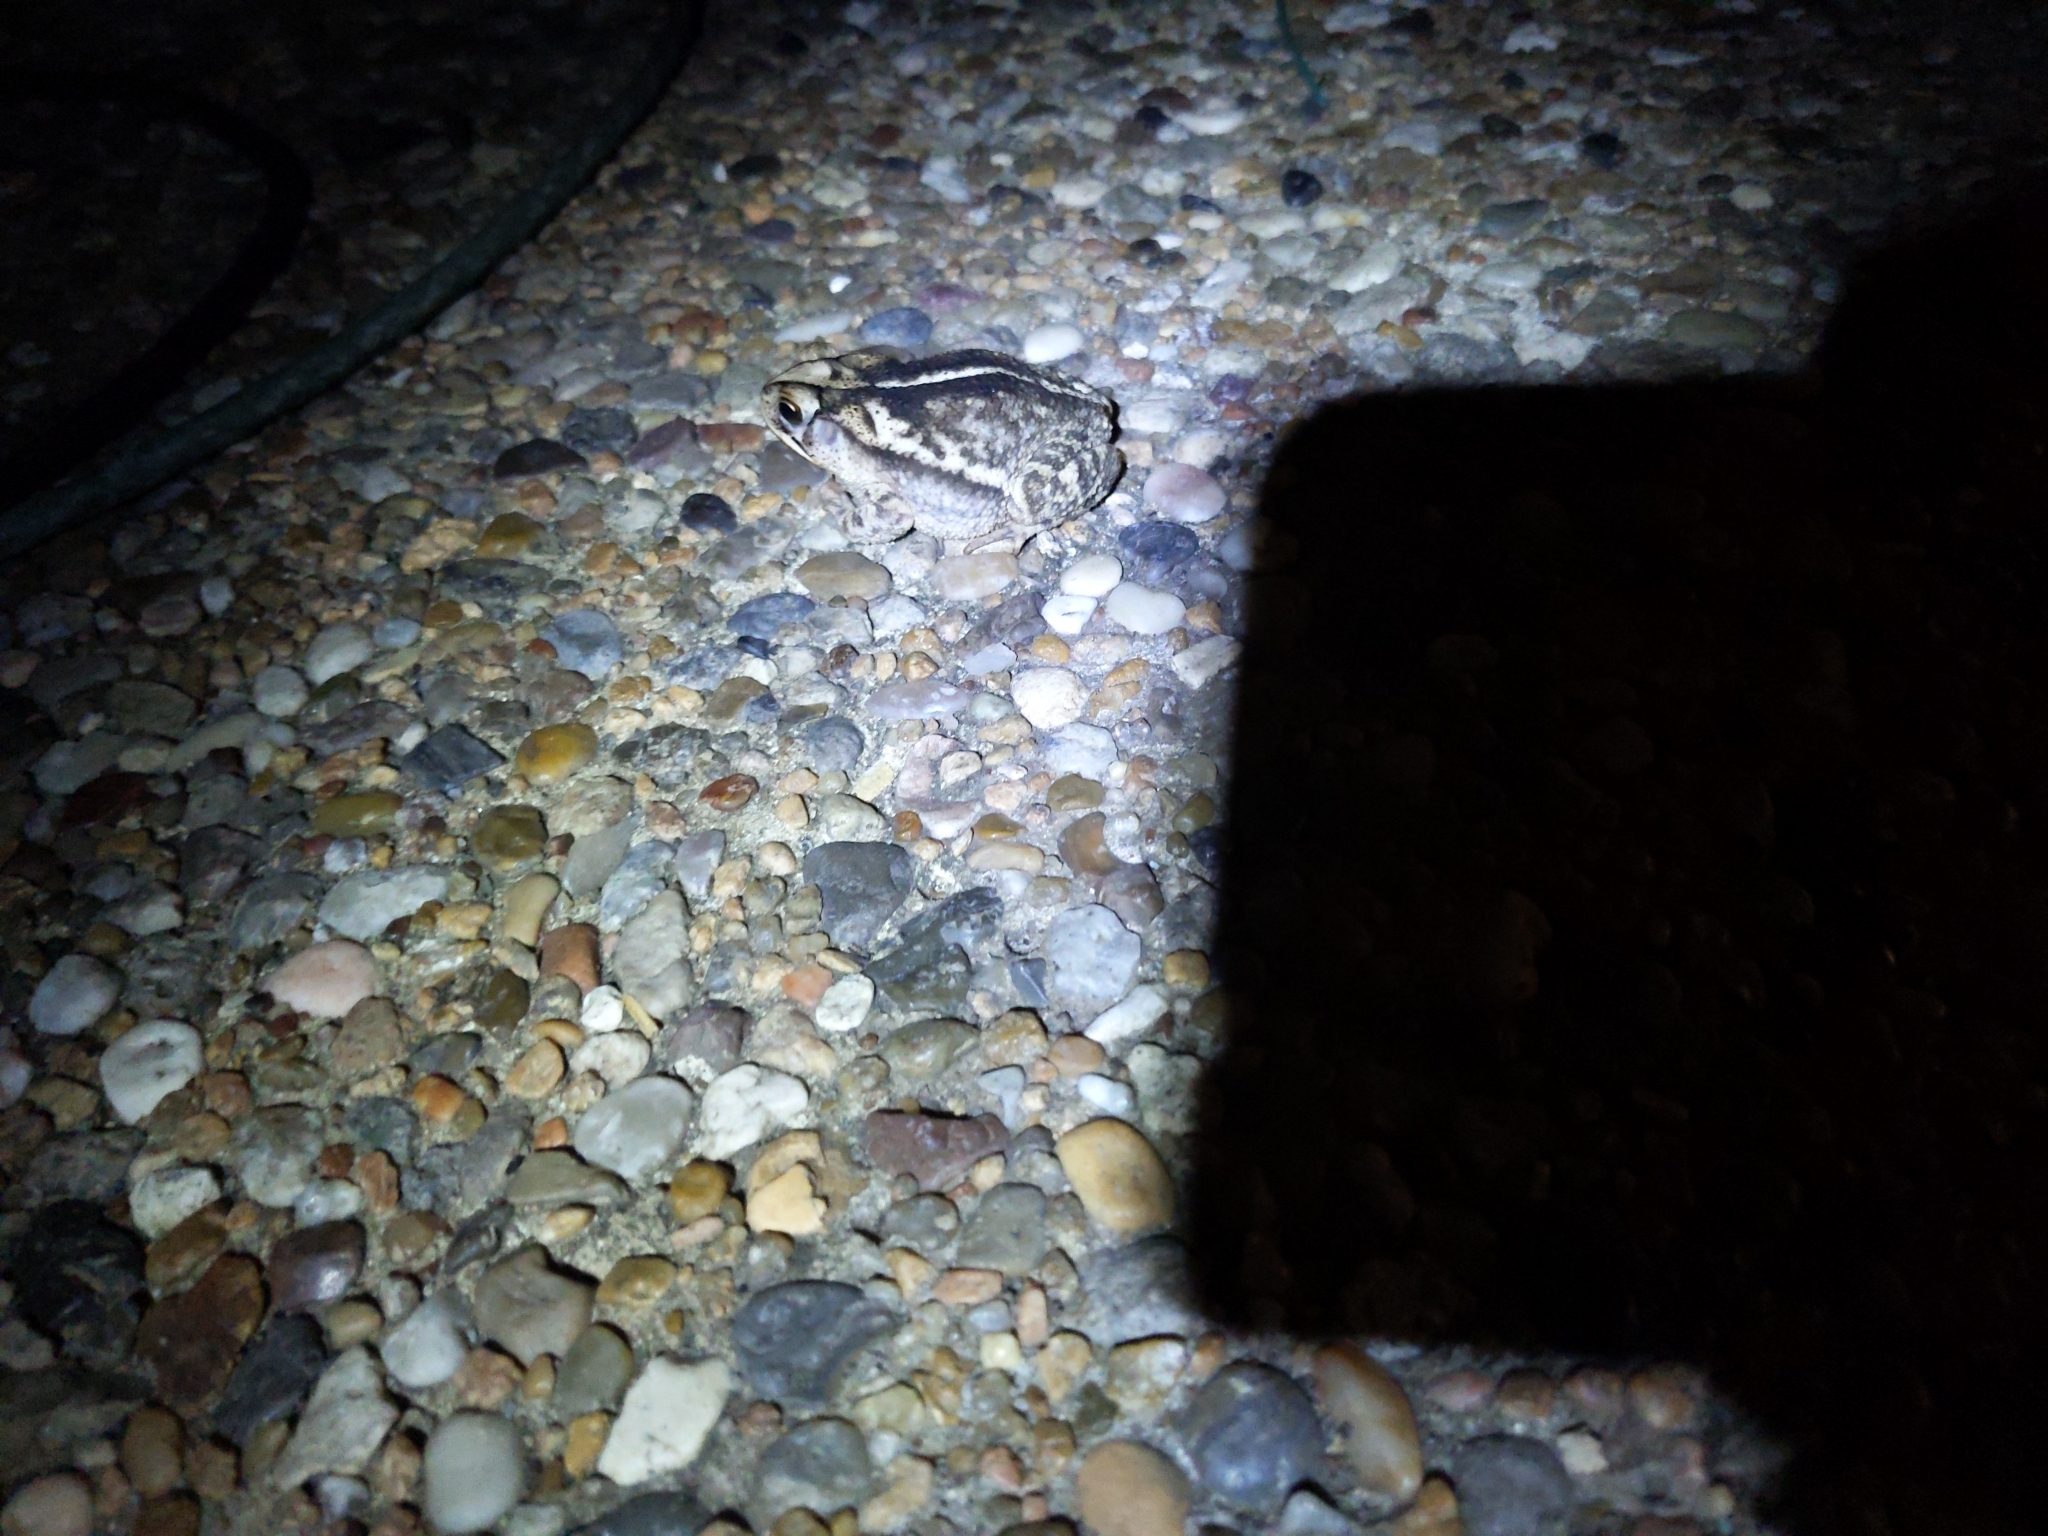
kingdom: Animalia
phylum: Chordata
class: Amphibia
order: Anura
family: Bufonidae
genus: Incilius
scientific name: Incilius nebulifer
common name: Gulf coast toad
